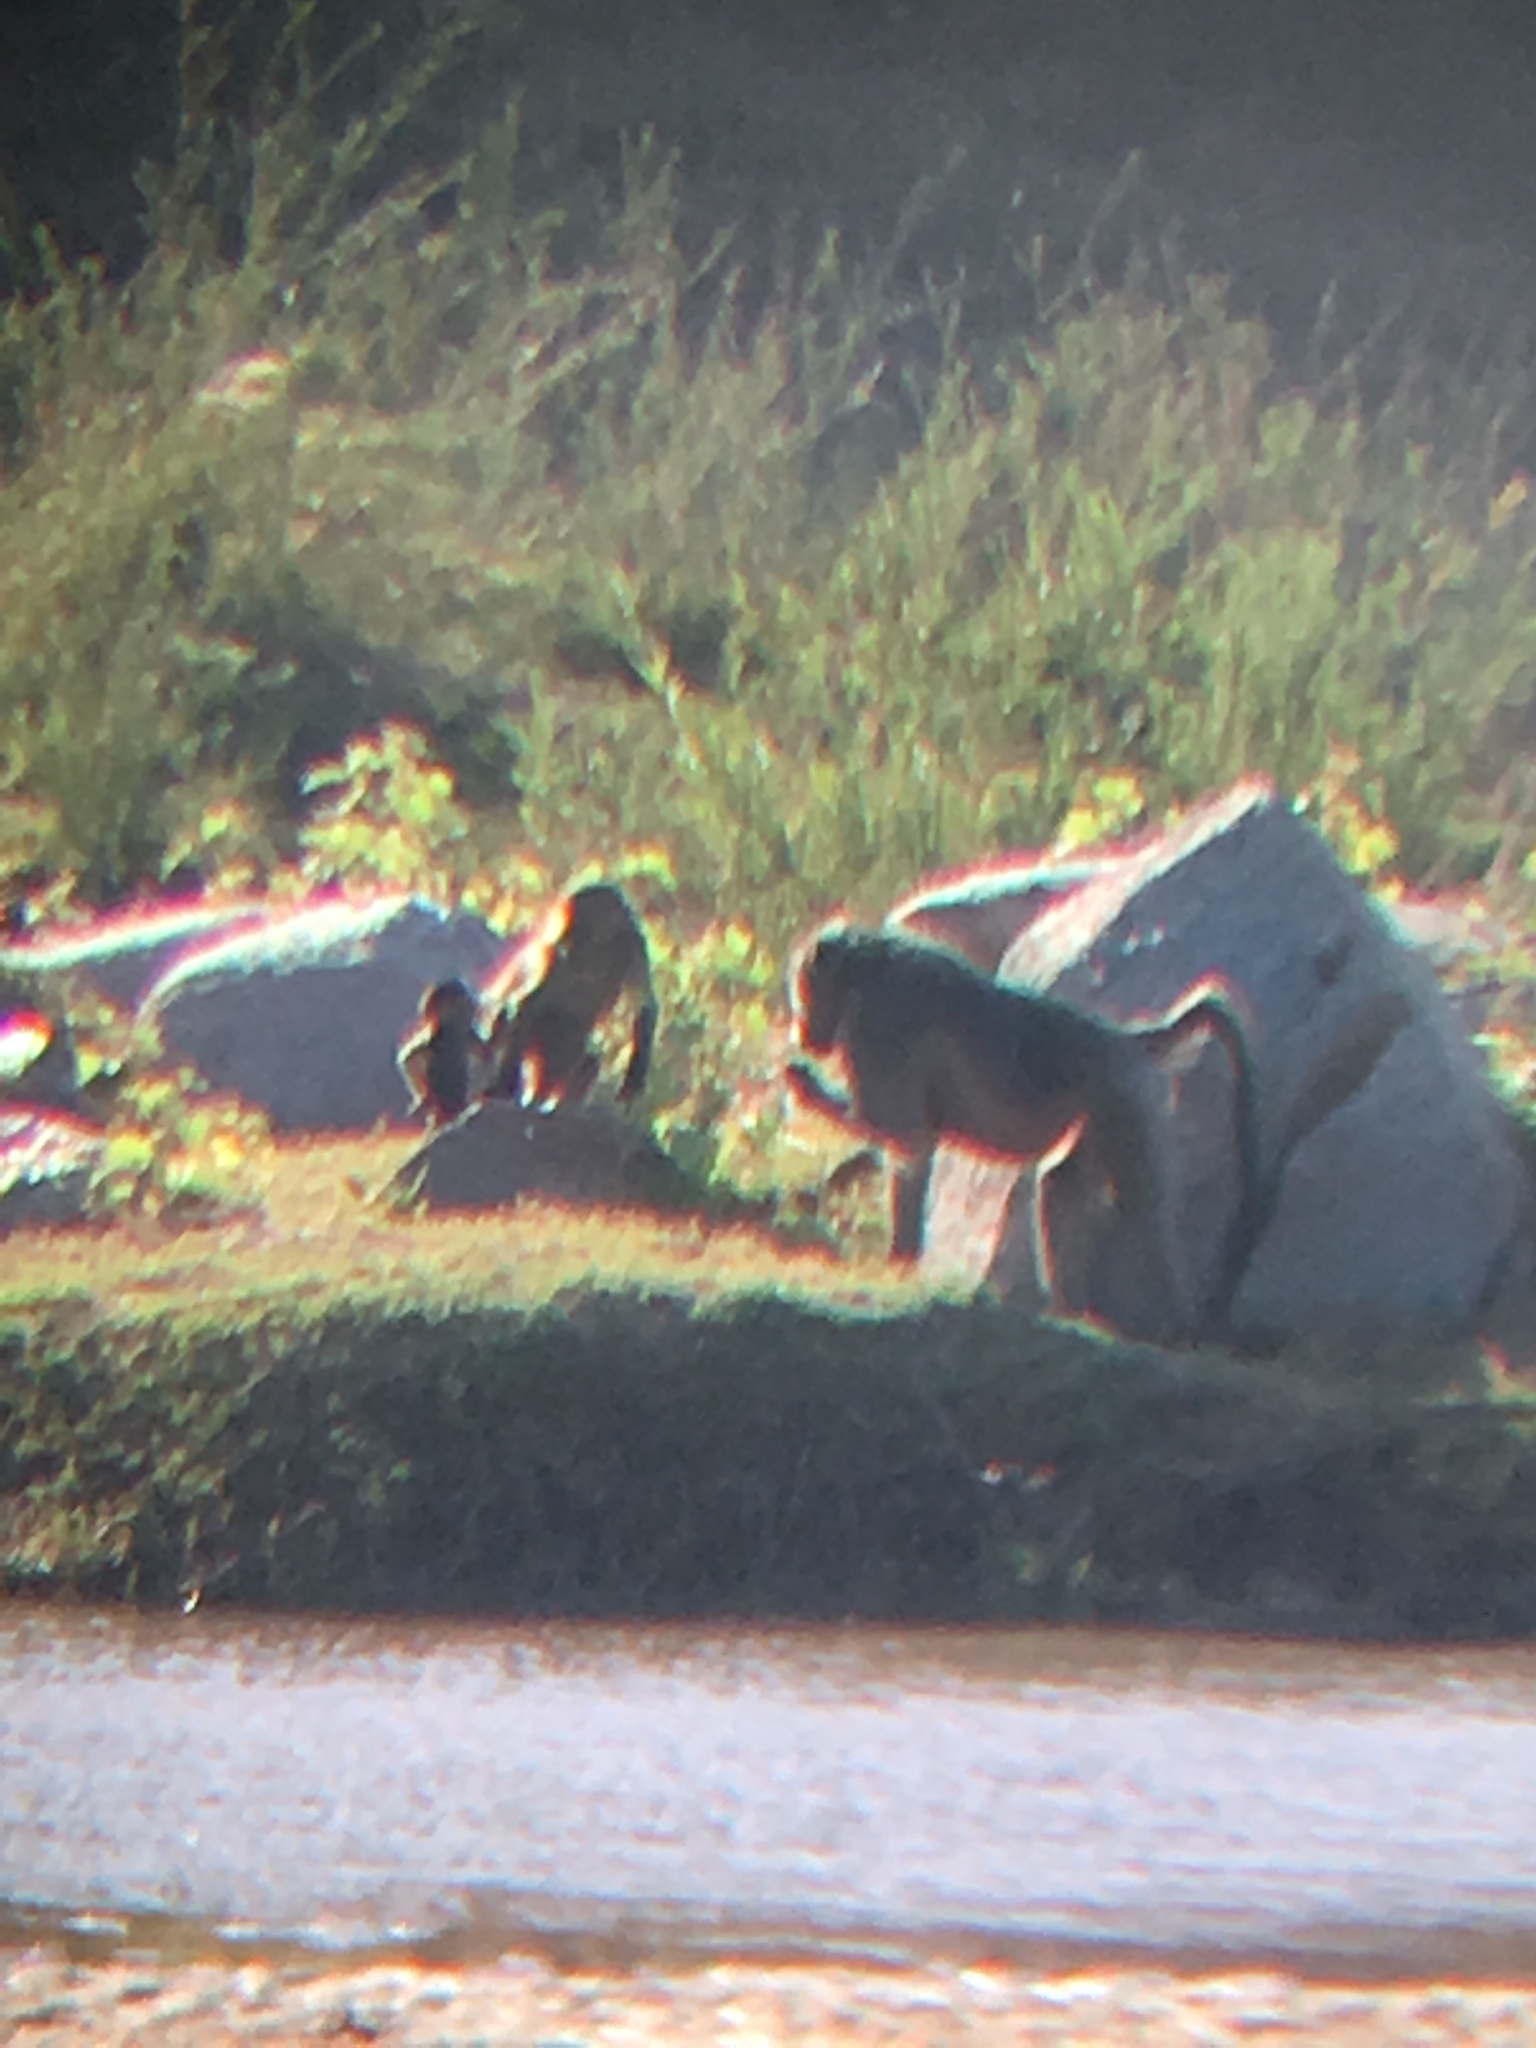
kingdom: Animalia
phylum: Chordata
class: Mammalia
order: Primates
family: Cercopithecidae
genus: Papio
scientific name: Papio ursinus
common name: Chacma baboon
